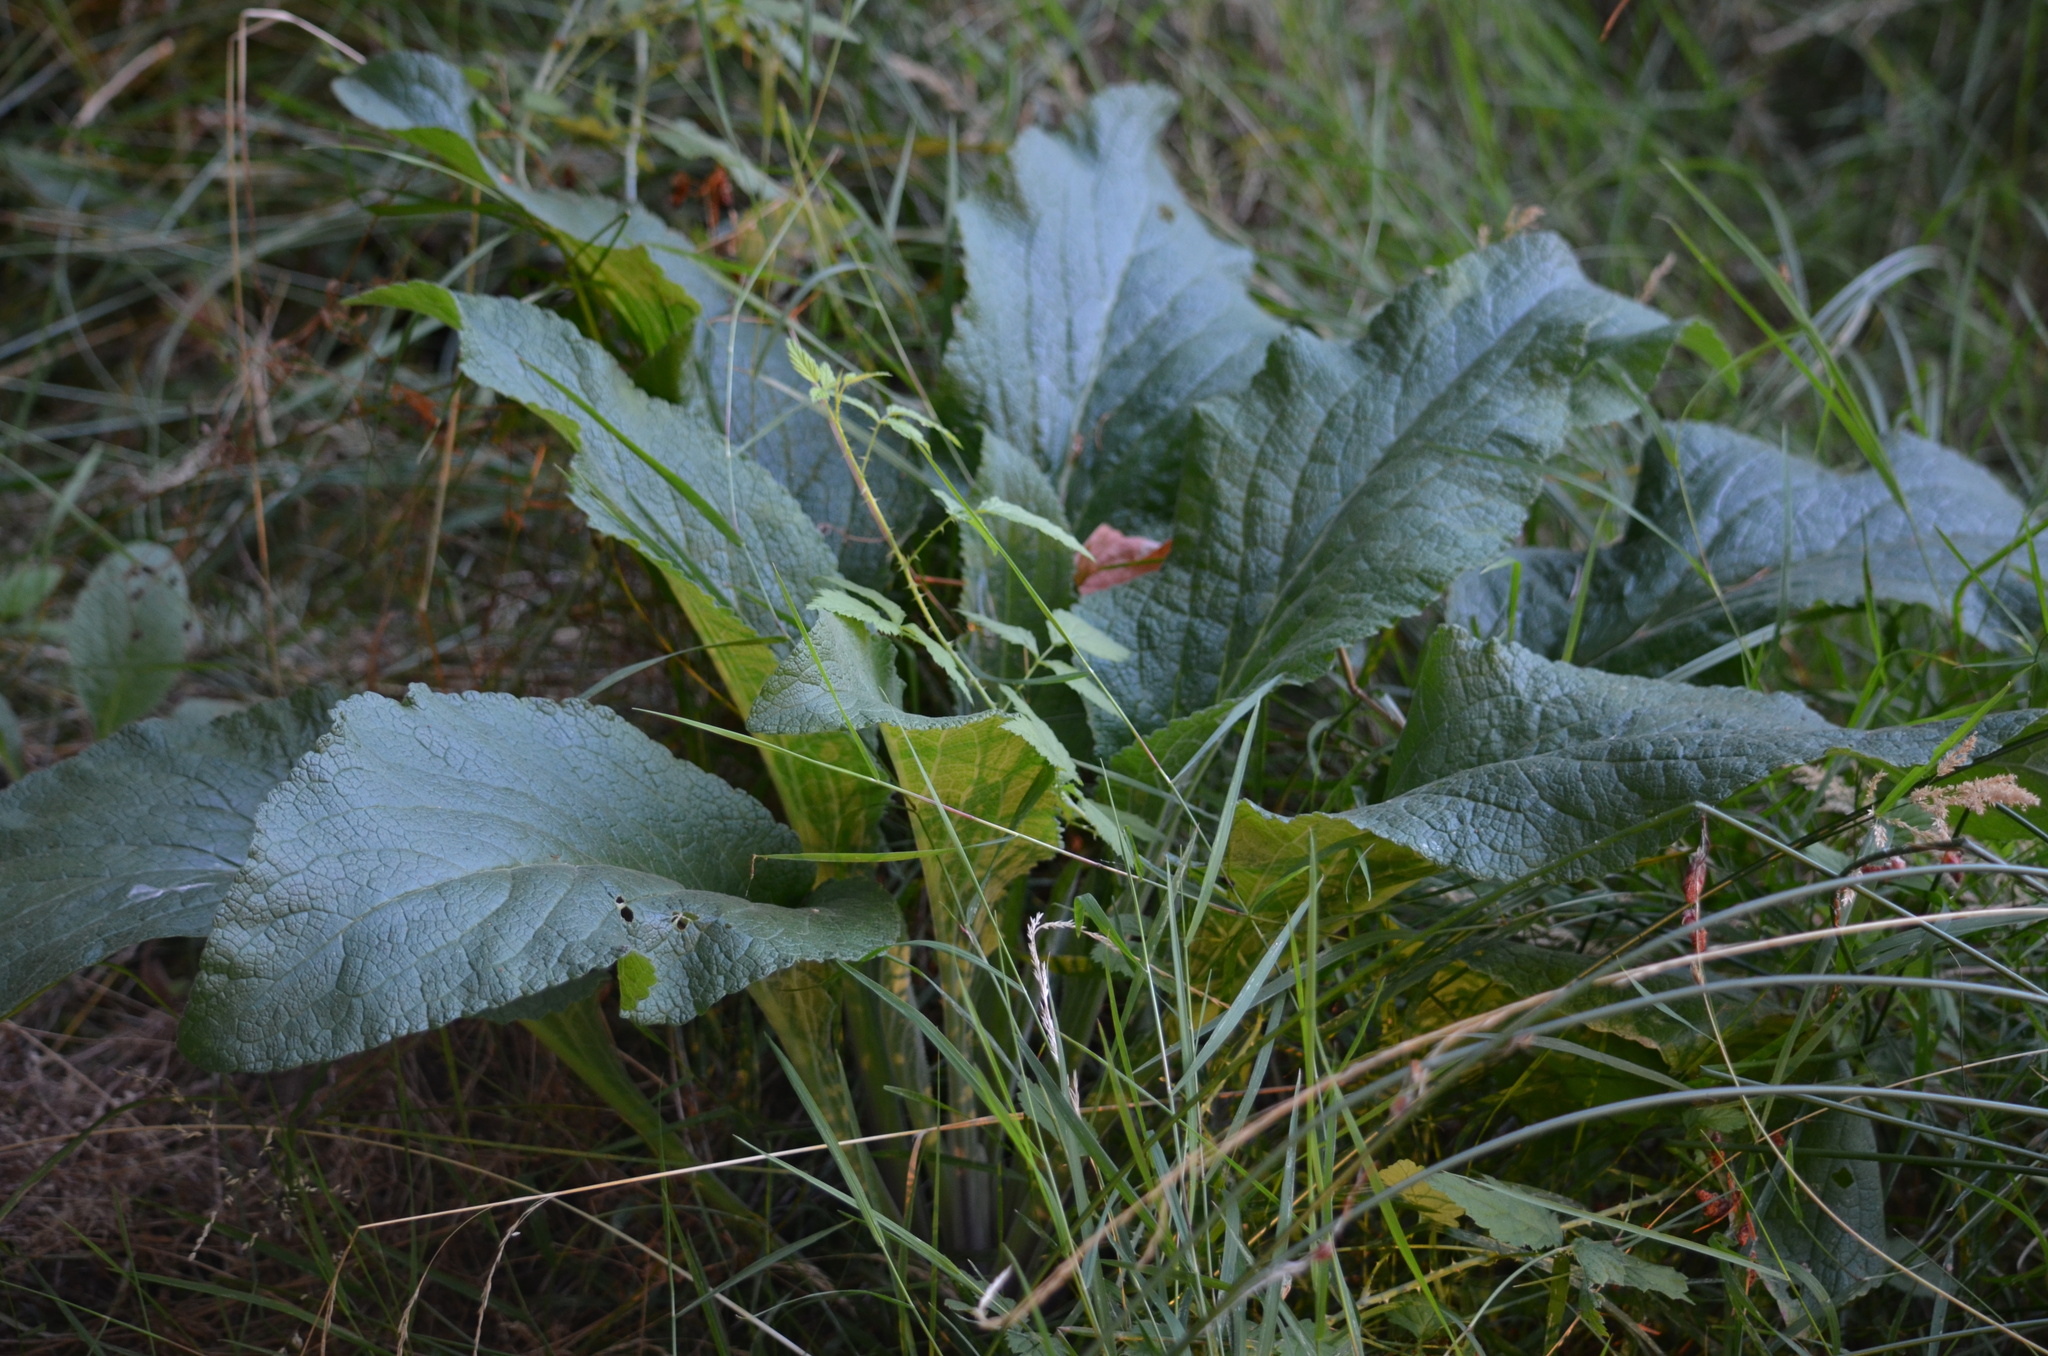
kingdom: Plantae
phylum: Tracheophyta
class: Liliopsida
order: Alismatales
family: Araceae
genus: Lysichiton
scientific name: Lysichiton americanus
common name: American skunk cabbage
